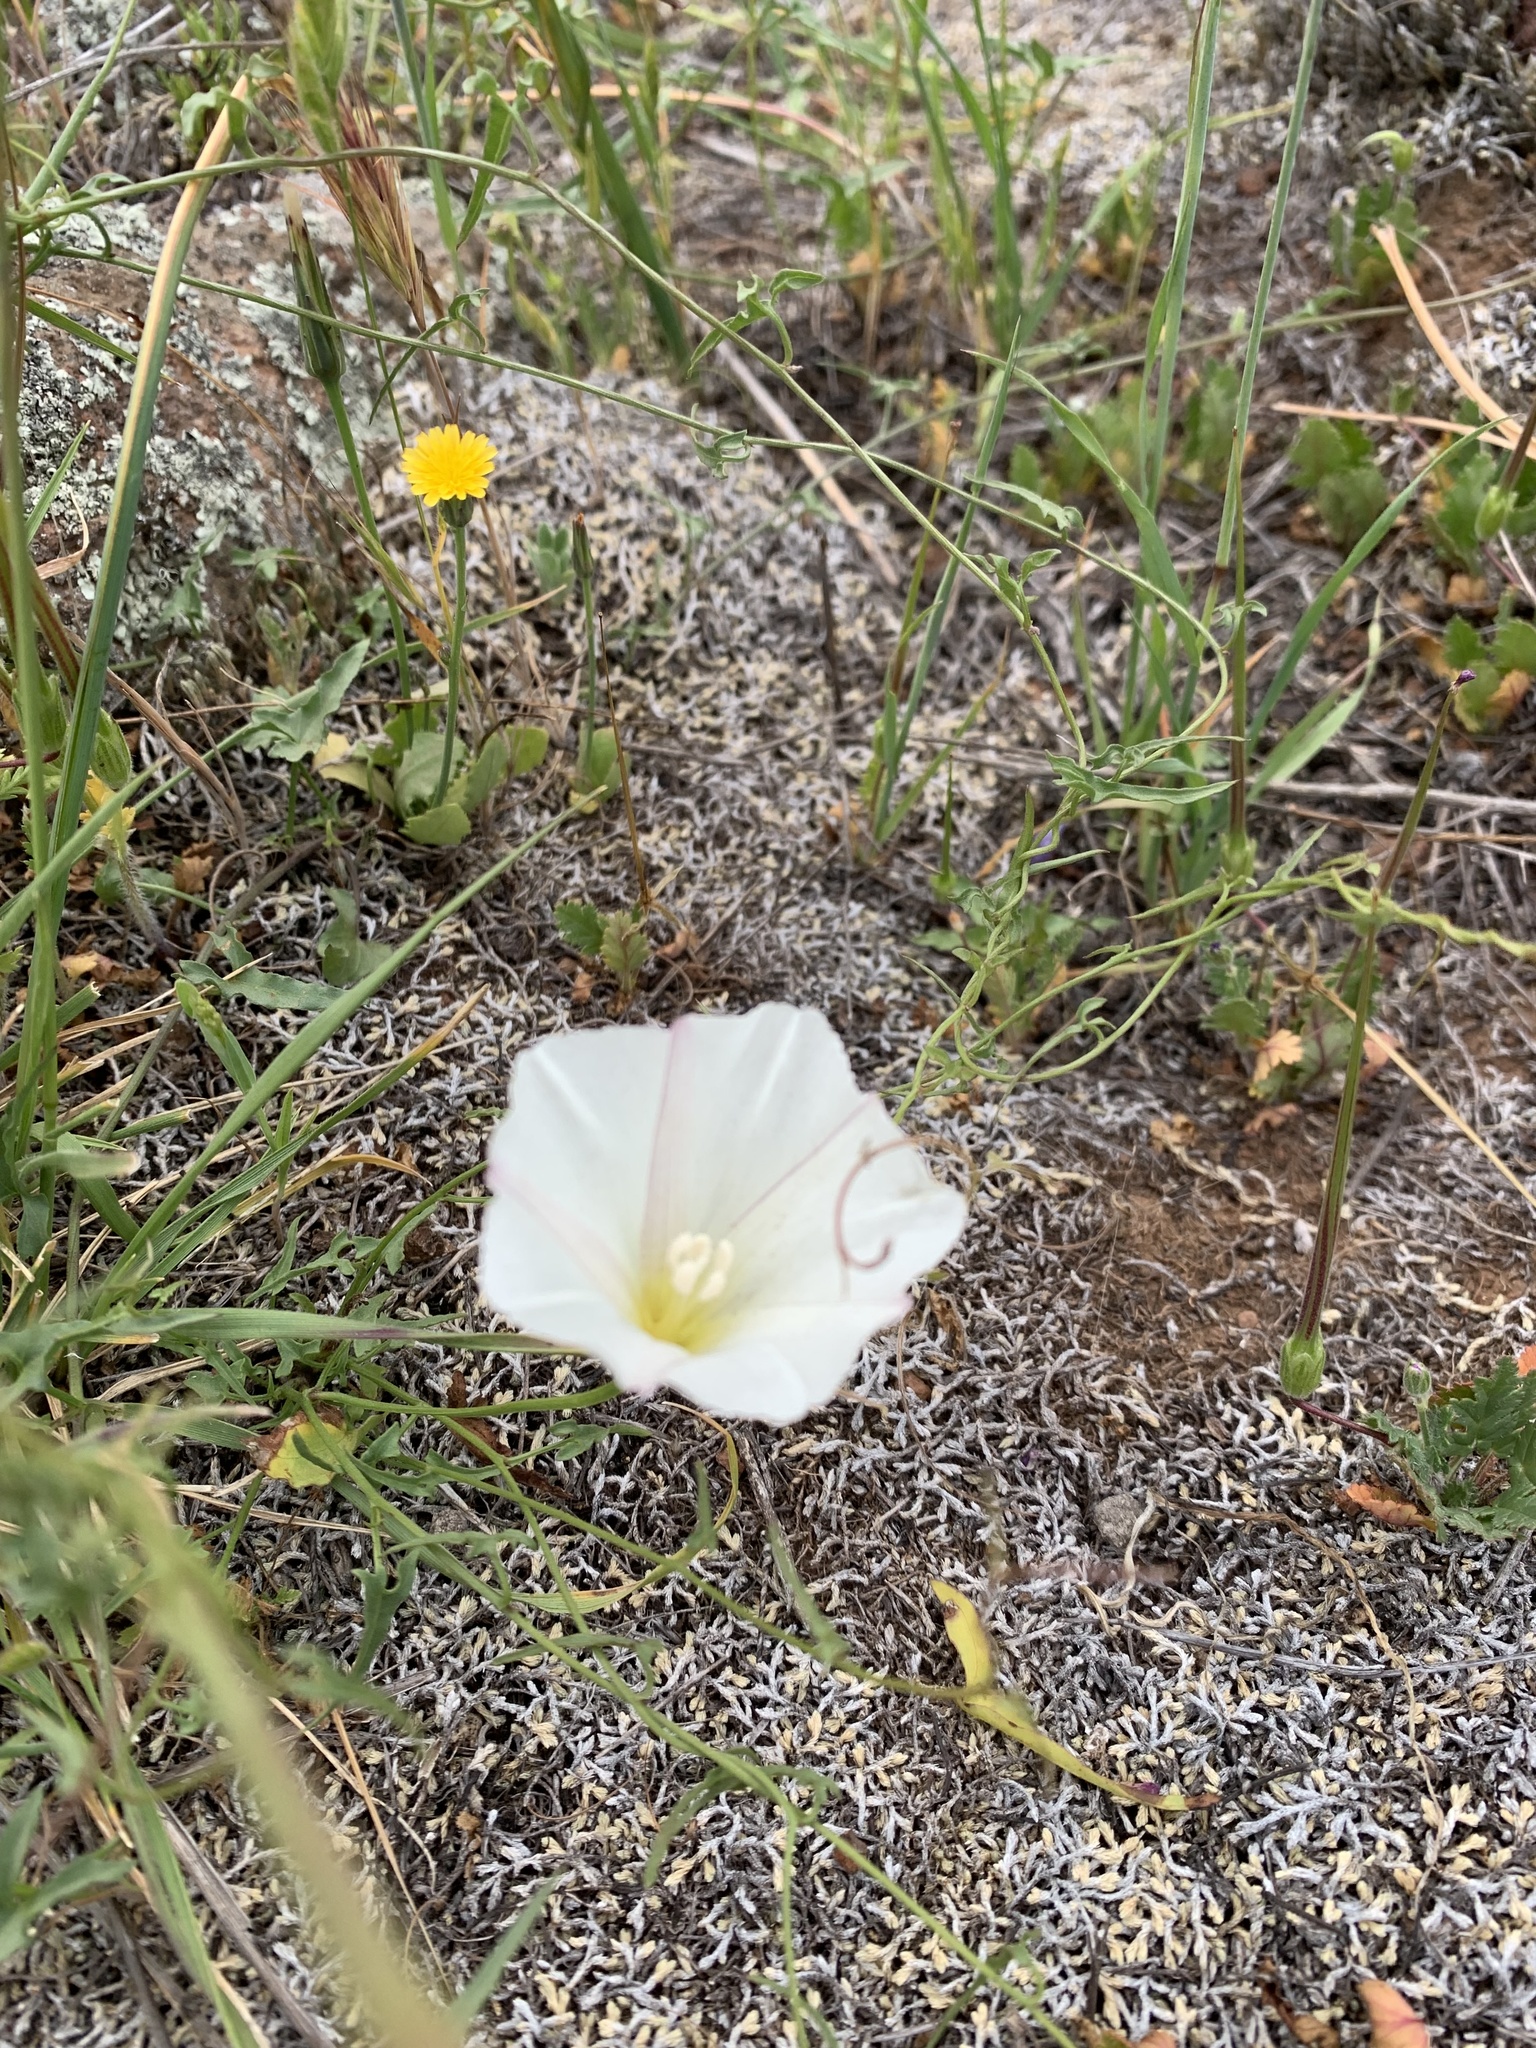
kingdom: Plantae
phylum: Tracheophyta
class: Magnoliopsida
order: Solanales
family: Convolvulaceae
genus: Calystegia
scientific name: Calystegia macrostegia
